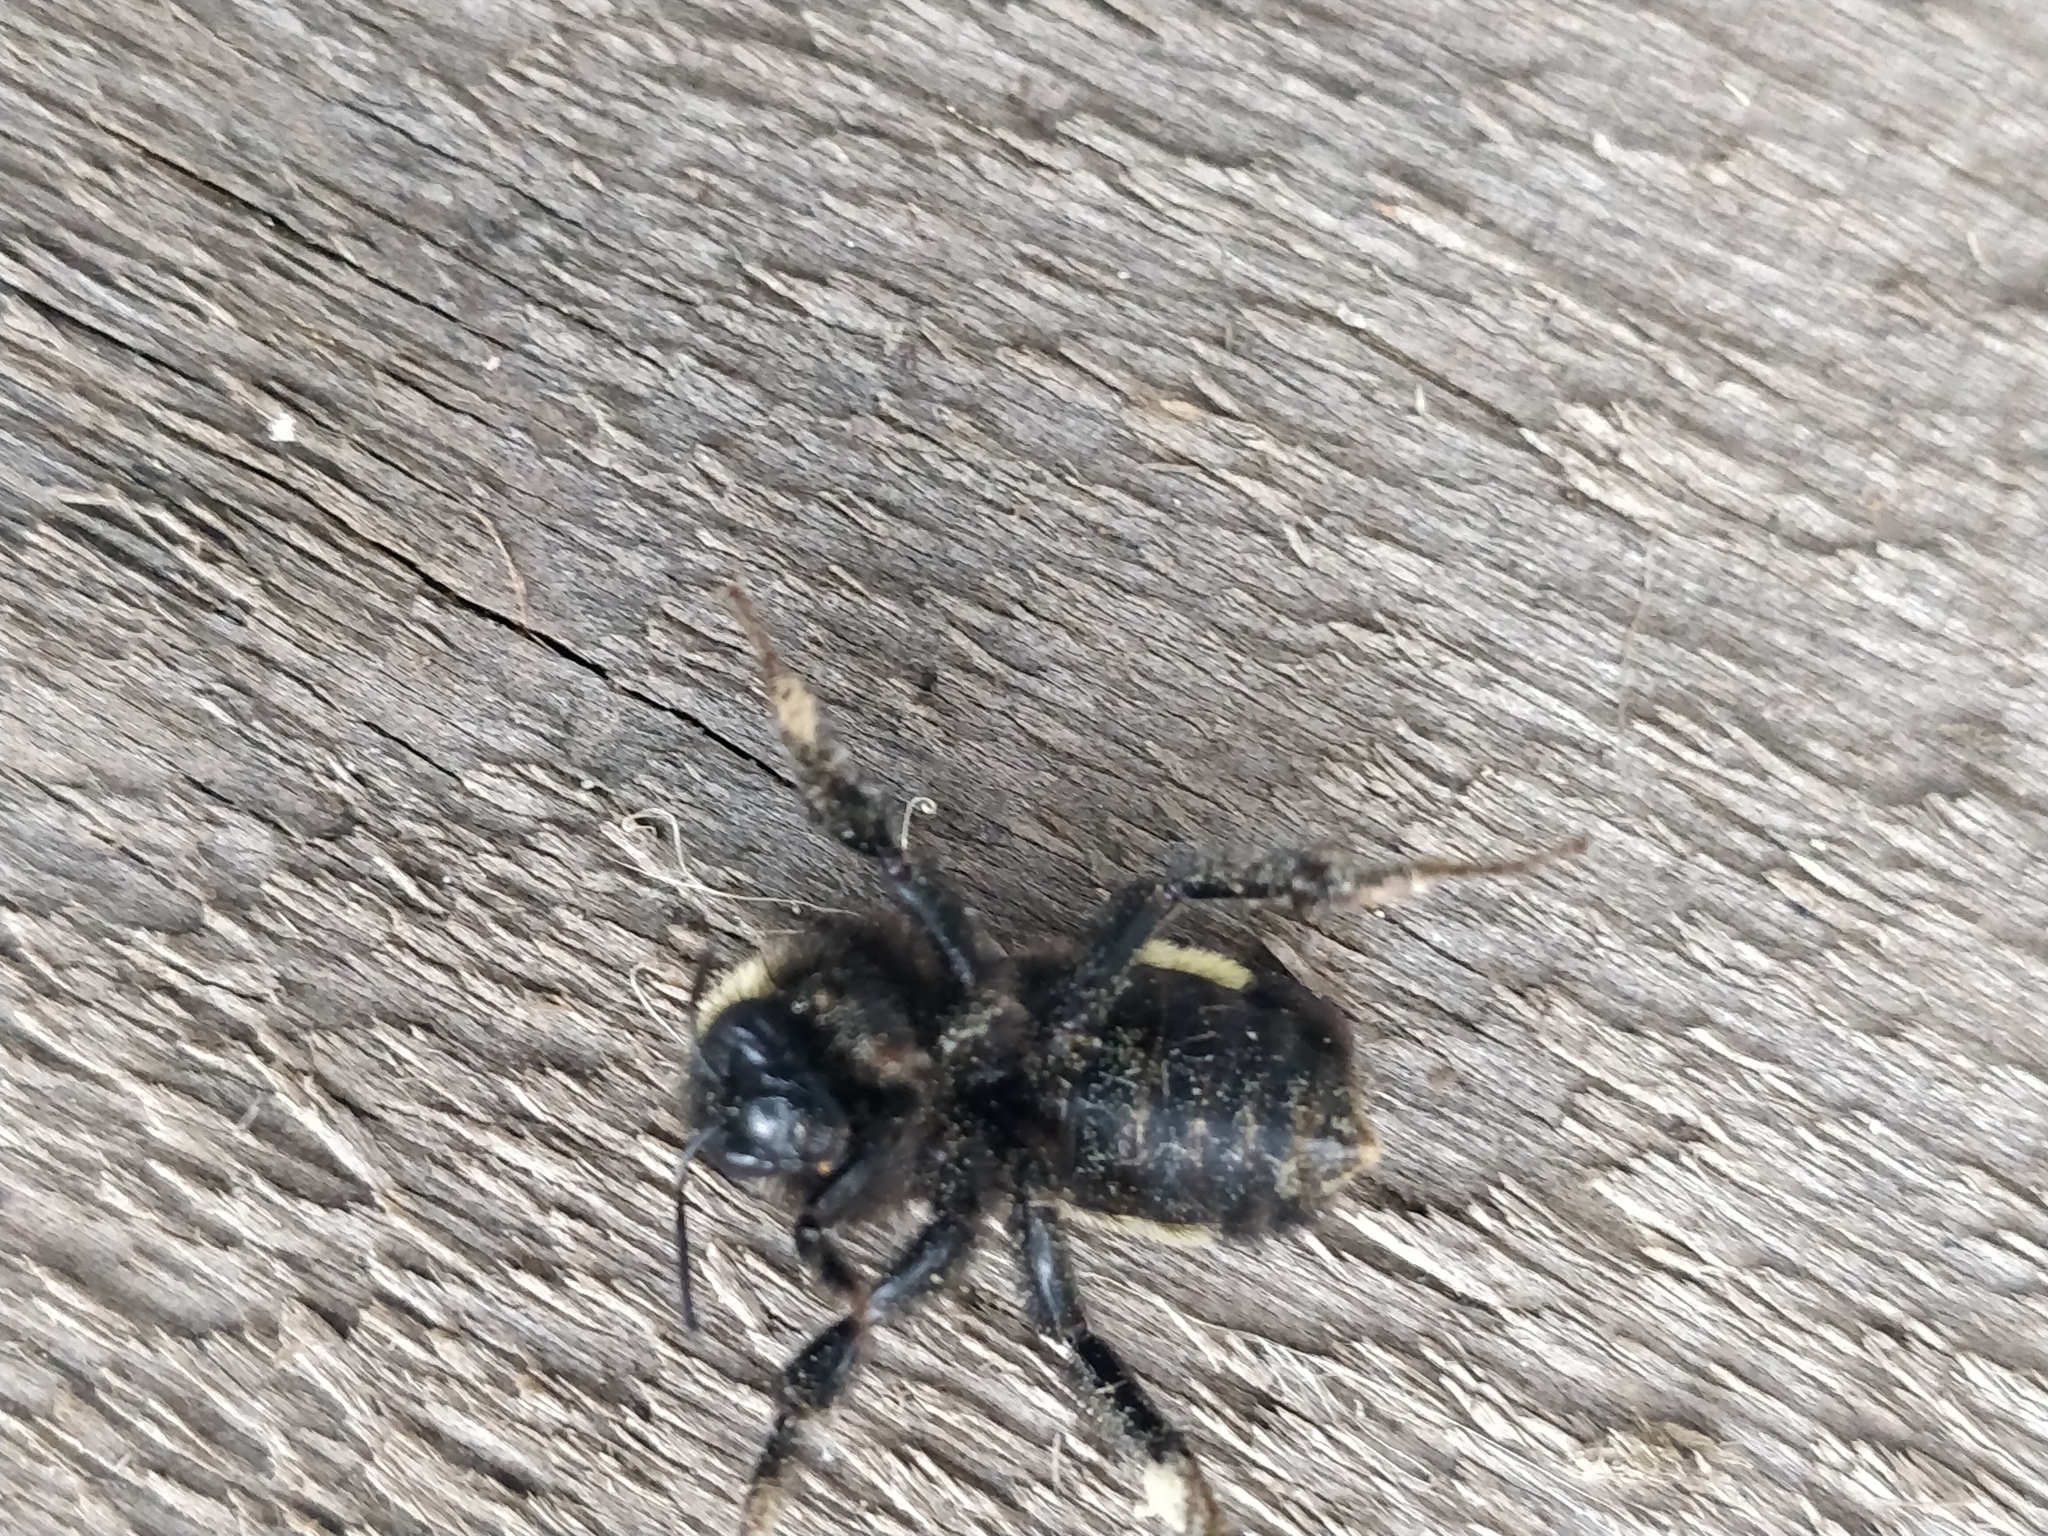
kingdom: Animalia
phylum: Arthropoda
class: Insecta
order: Hymenoptera
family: Apidae
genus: Bombus
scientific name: Bombus pensylvanicus
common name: Bumble bee
